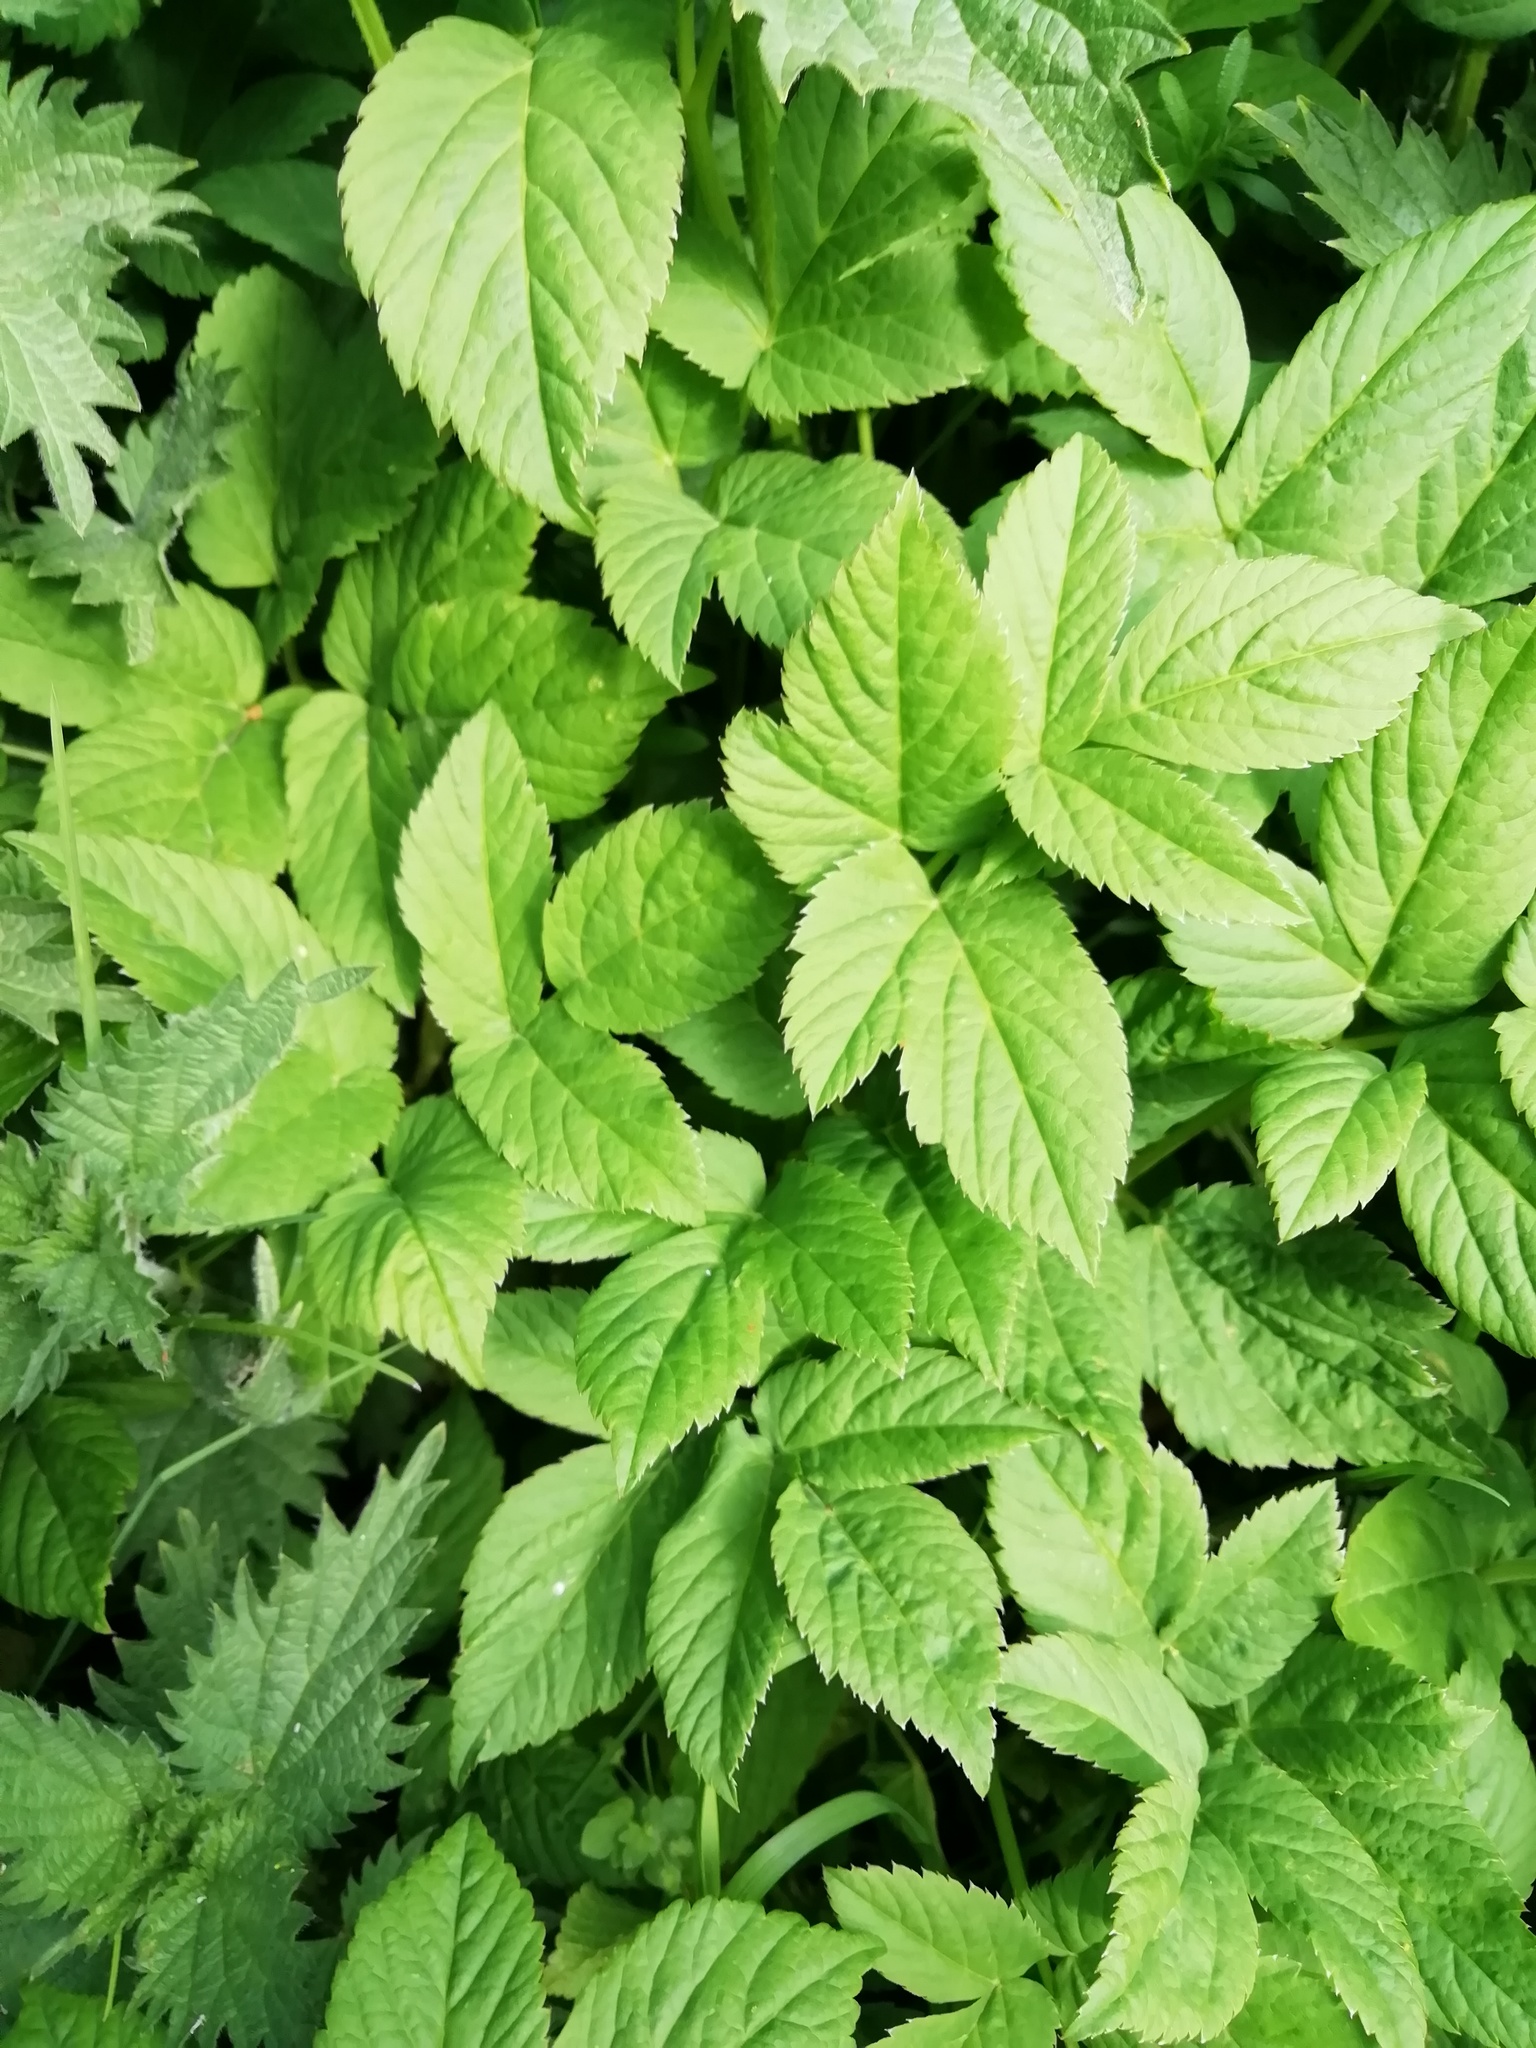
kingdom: Plantae
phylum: Tracheophyta
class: Magnoliopsida
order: Apiales
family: Apiaceae
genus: Aegopodium
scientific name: Aegopodium podagraria
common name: Ground-elder
